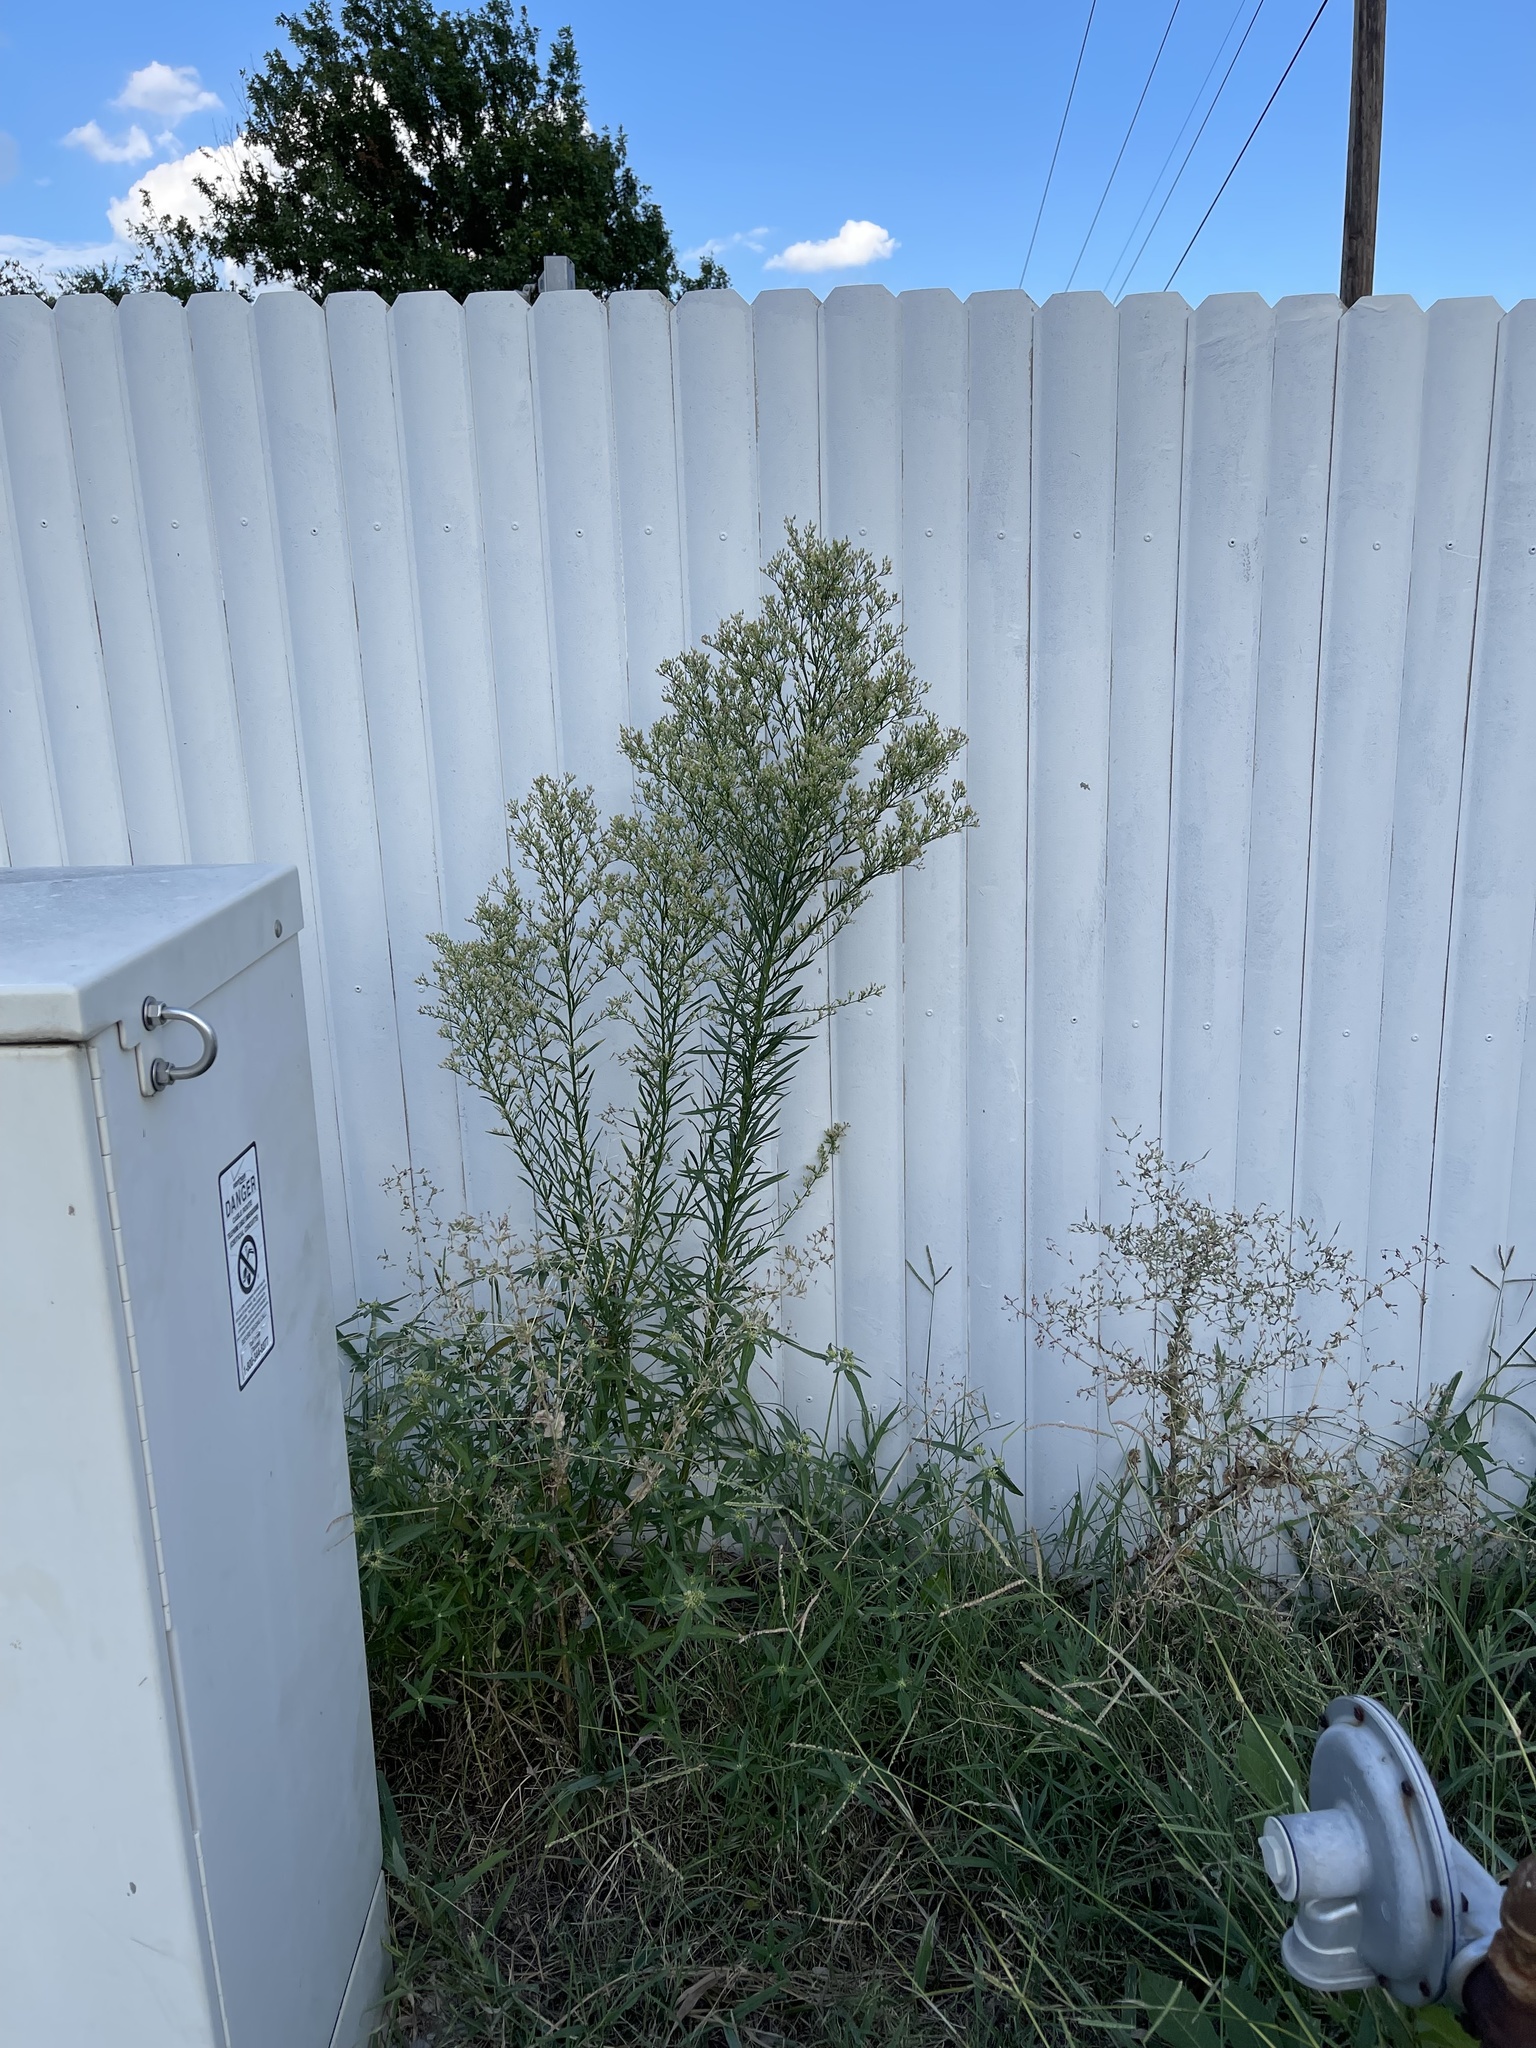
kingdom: Plantae
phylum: Tracheophyta
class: Magnoliopsida
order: Asterales
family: Asteraceae
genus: Erigeron
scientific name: Erigeron canadensis
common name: Canadian fleabane
